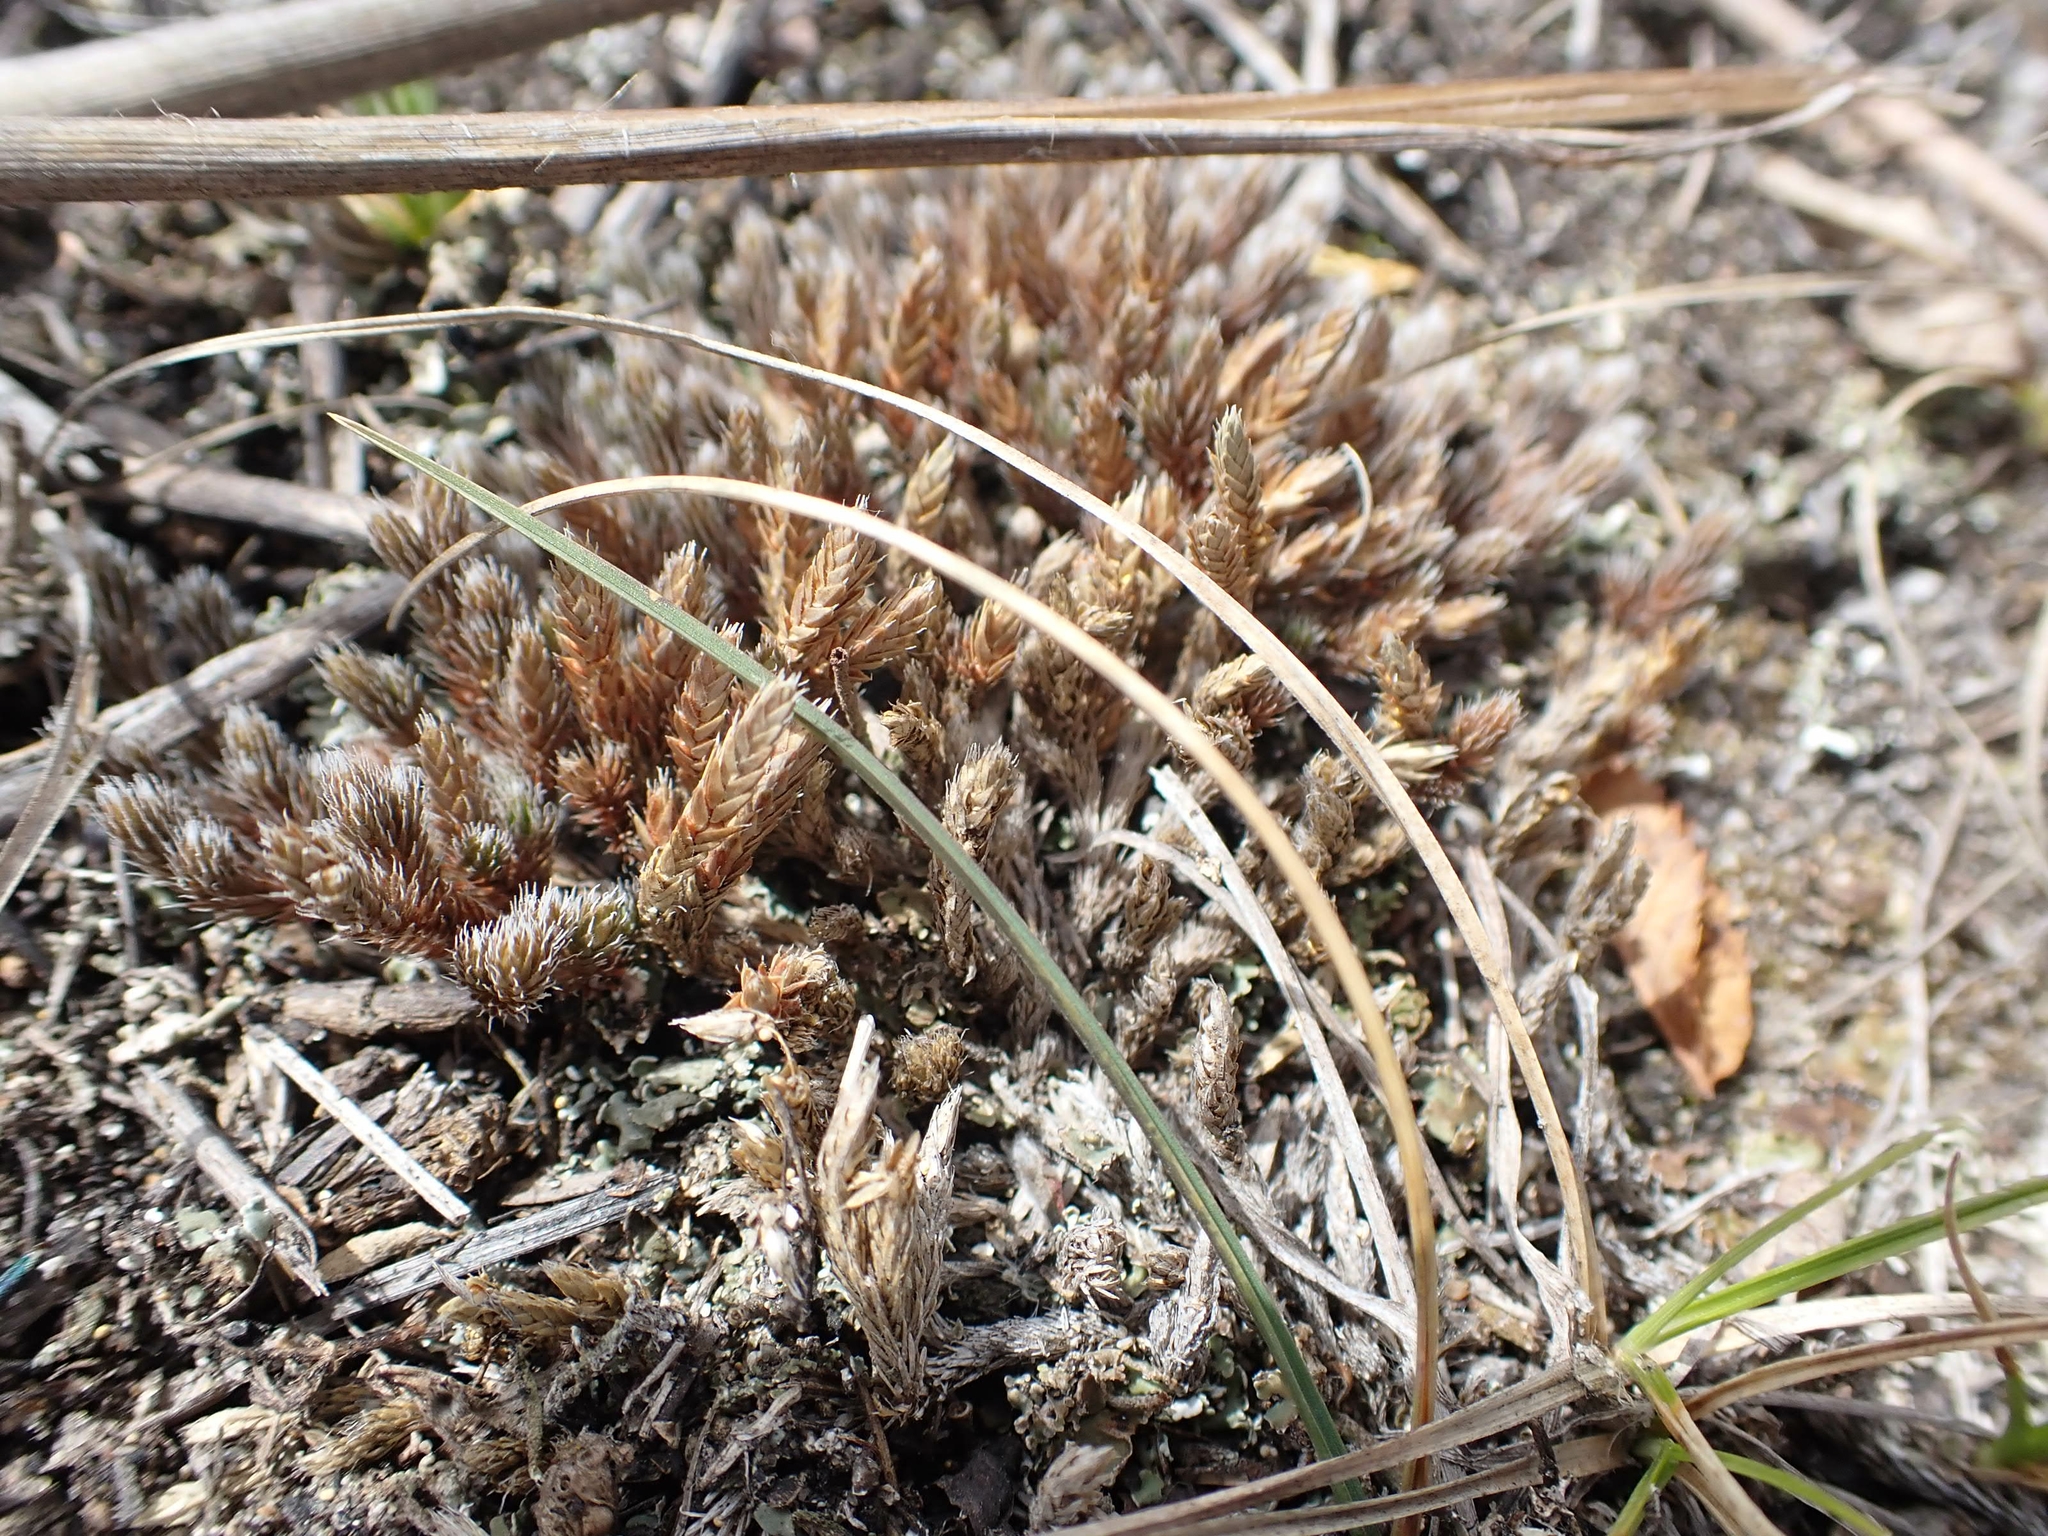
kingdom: Plantae
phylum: Tracheophyta
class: Lycopodiopsida
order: Selaginellales
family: Selaginellaceae
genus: Selaginella
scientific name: Selaginella densa
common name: Mountain spike-moss
